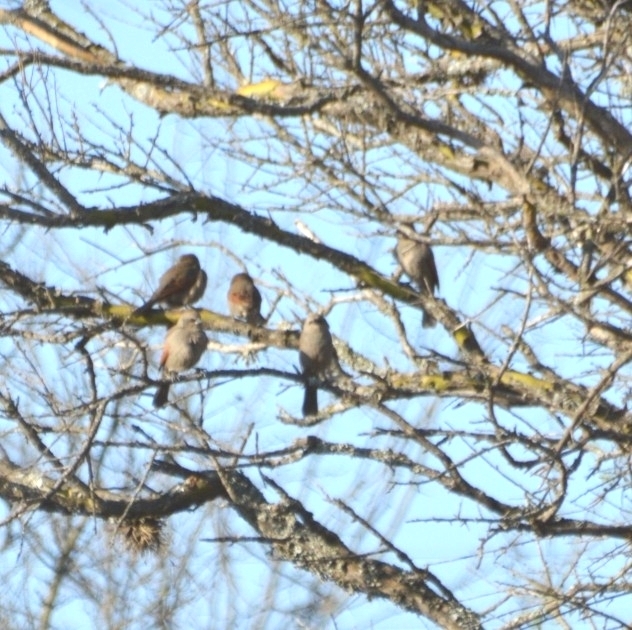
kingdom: Animalia
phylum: Chordata
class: Aves
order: Passeriformes
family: Icteridae
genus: Agelaioides
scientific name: Agelaioides badius
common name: Baywing
